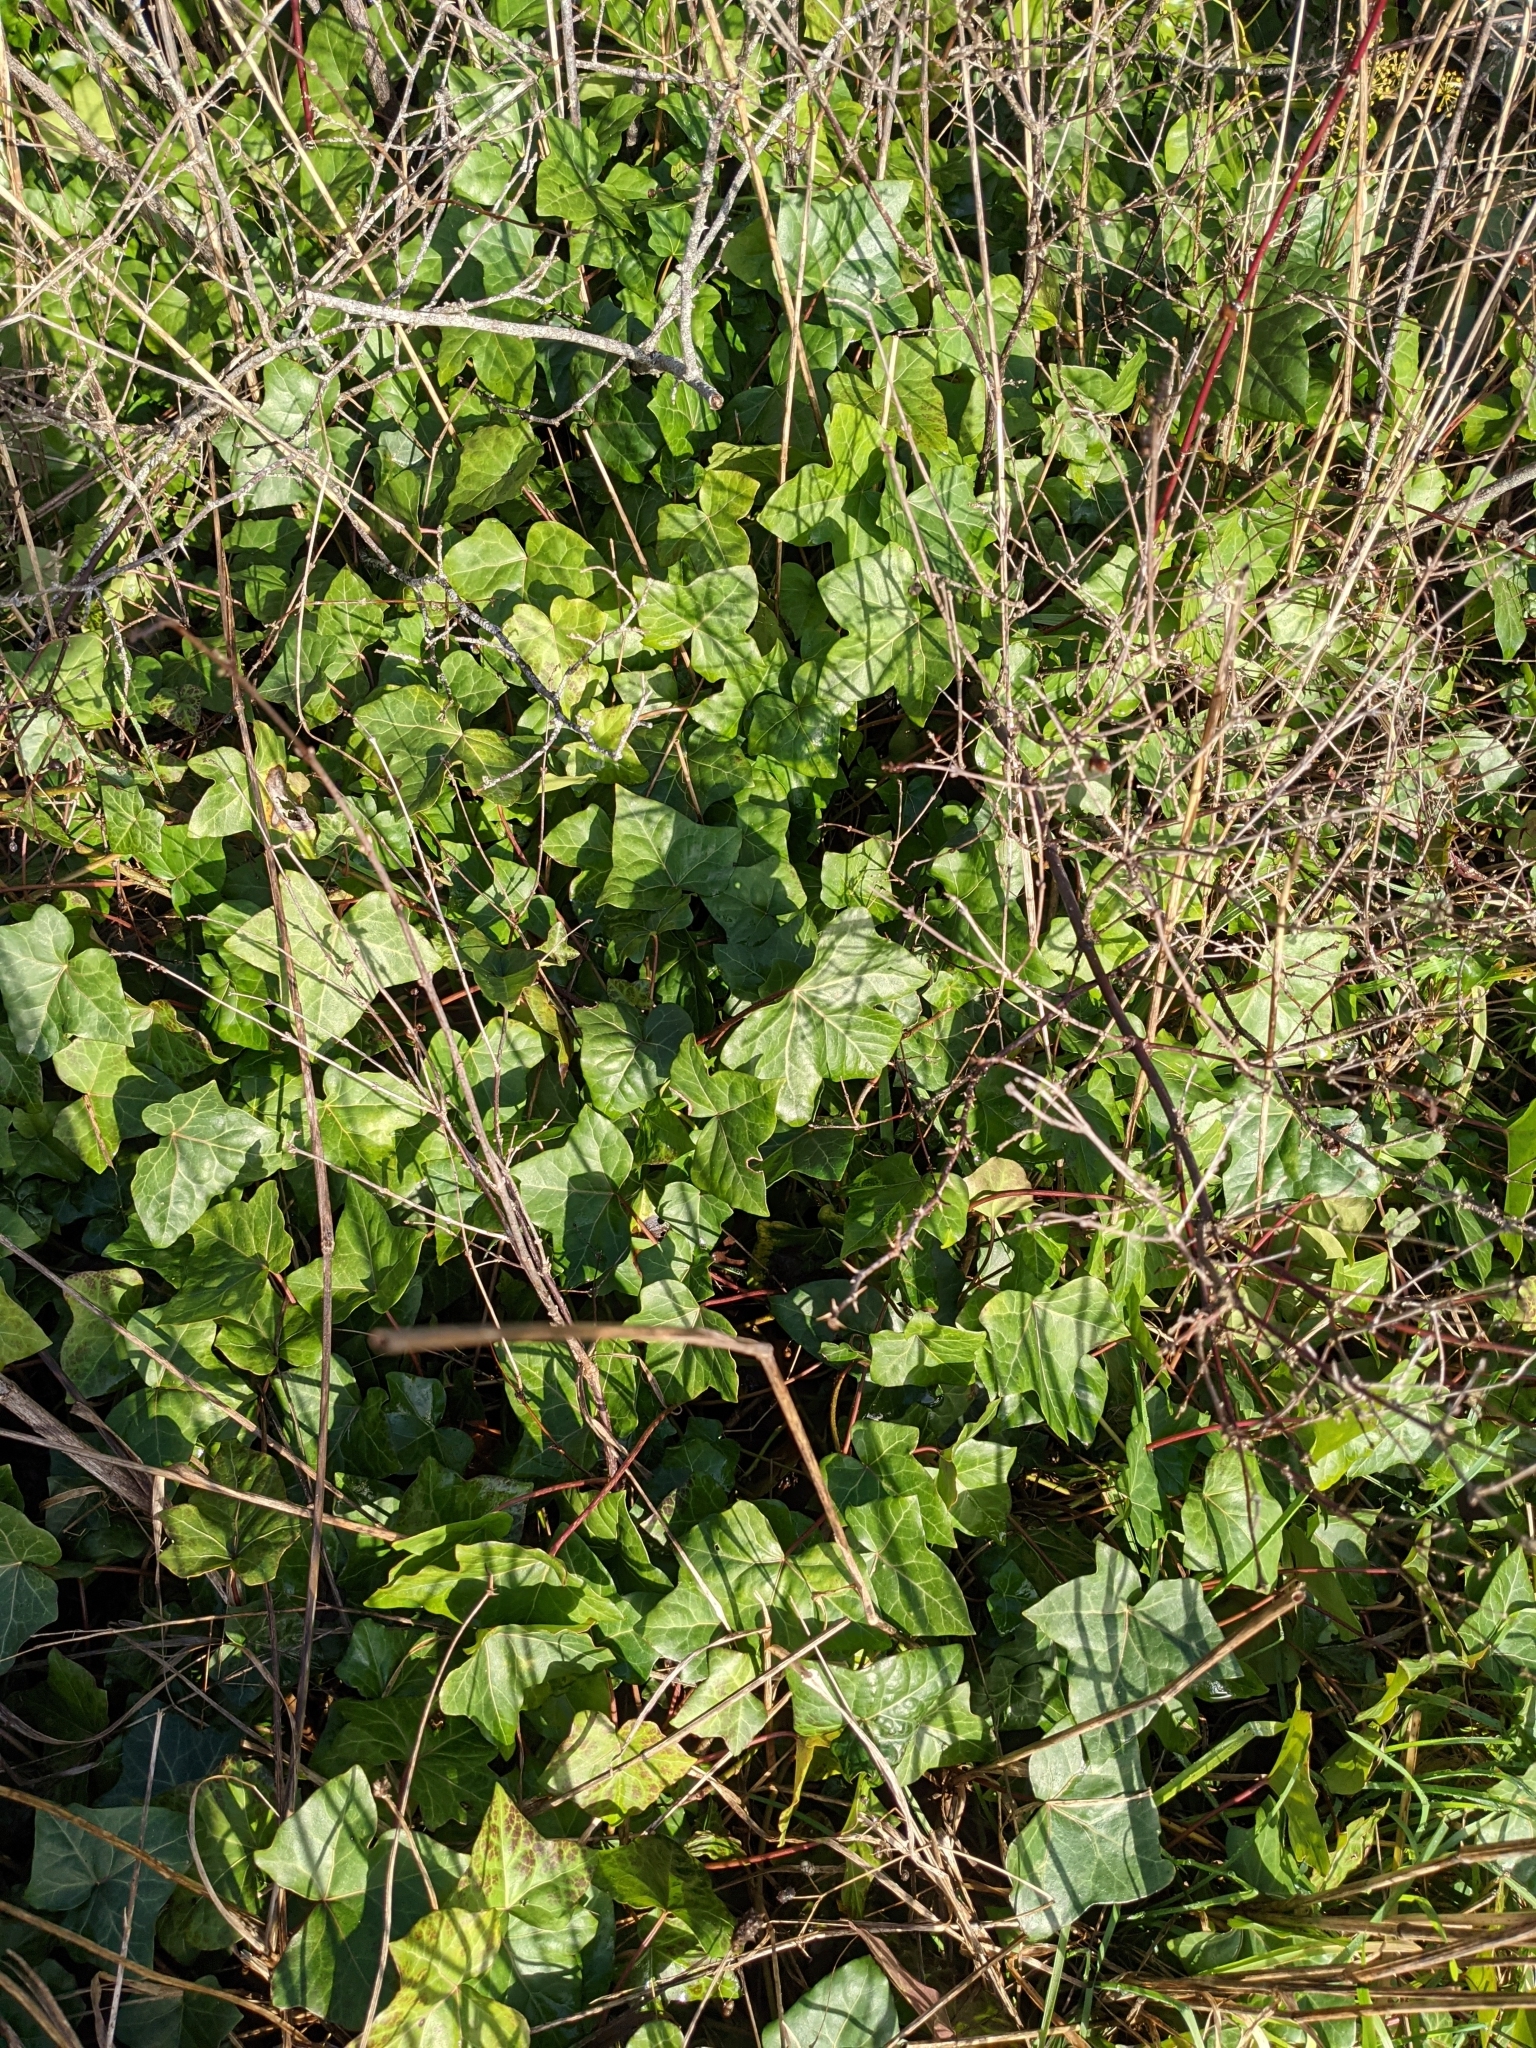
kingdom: Plantae
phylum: Tracheophyta
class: Magnoliopsida
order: Apiales
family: Araliaceae
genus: Hedera
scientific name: Hedera helix
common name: Ivy
